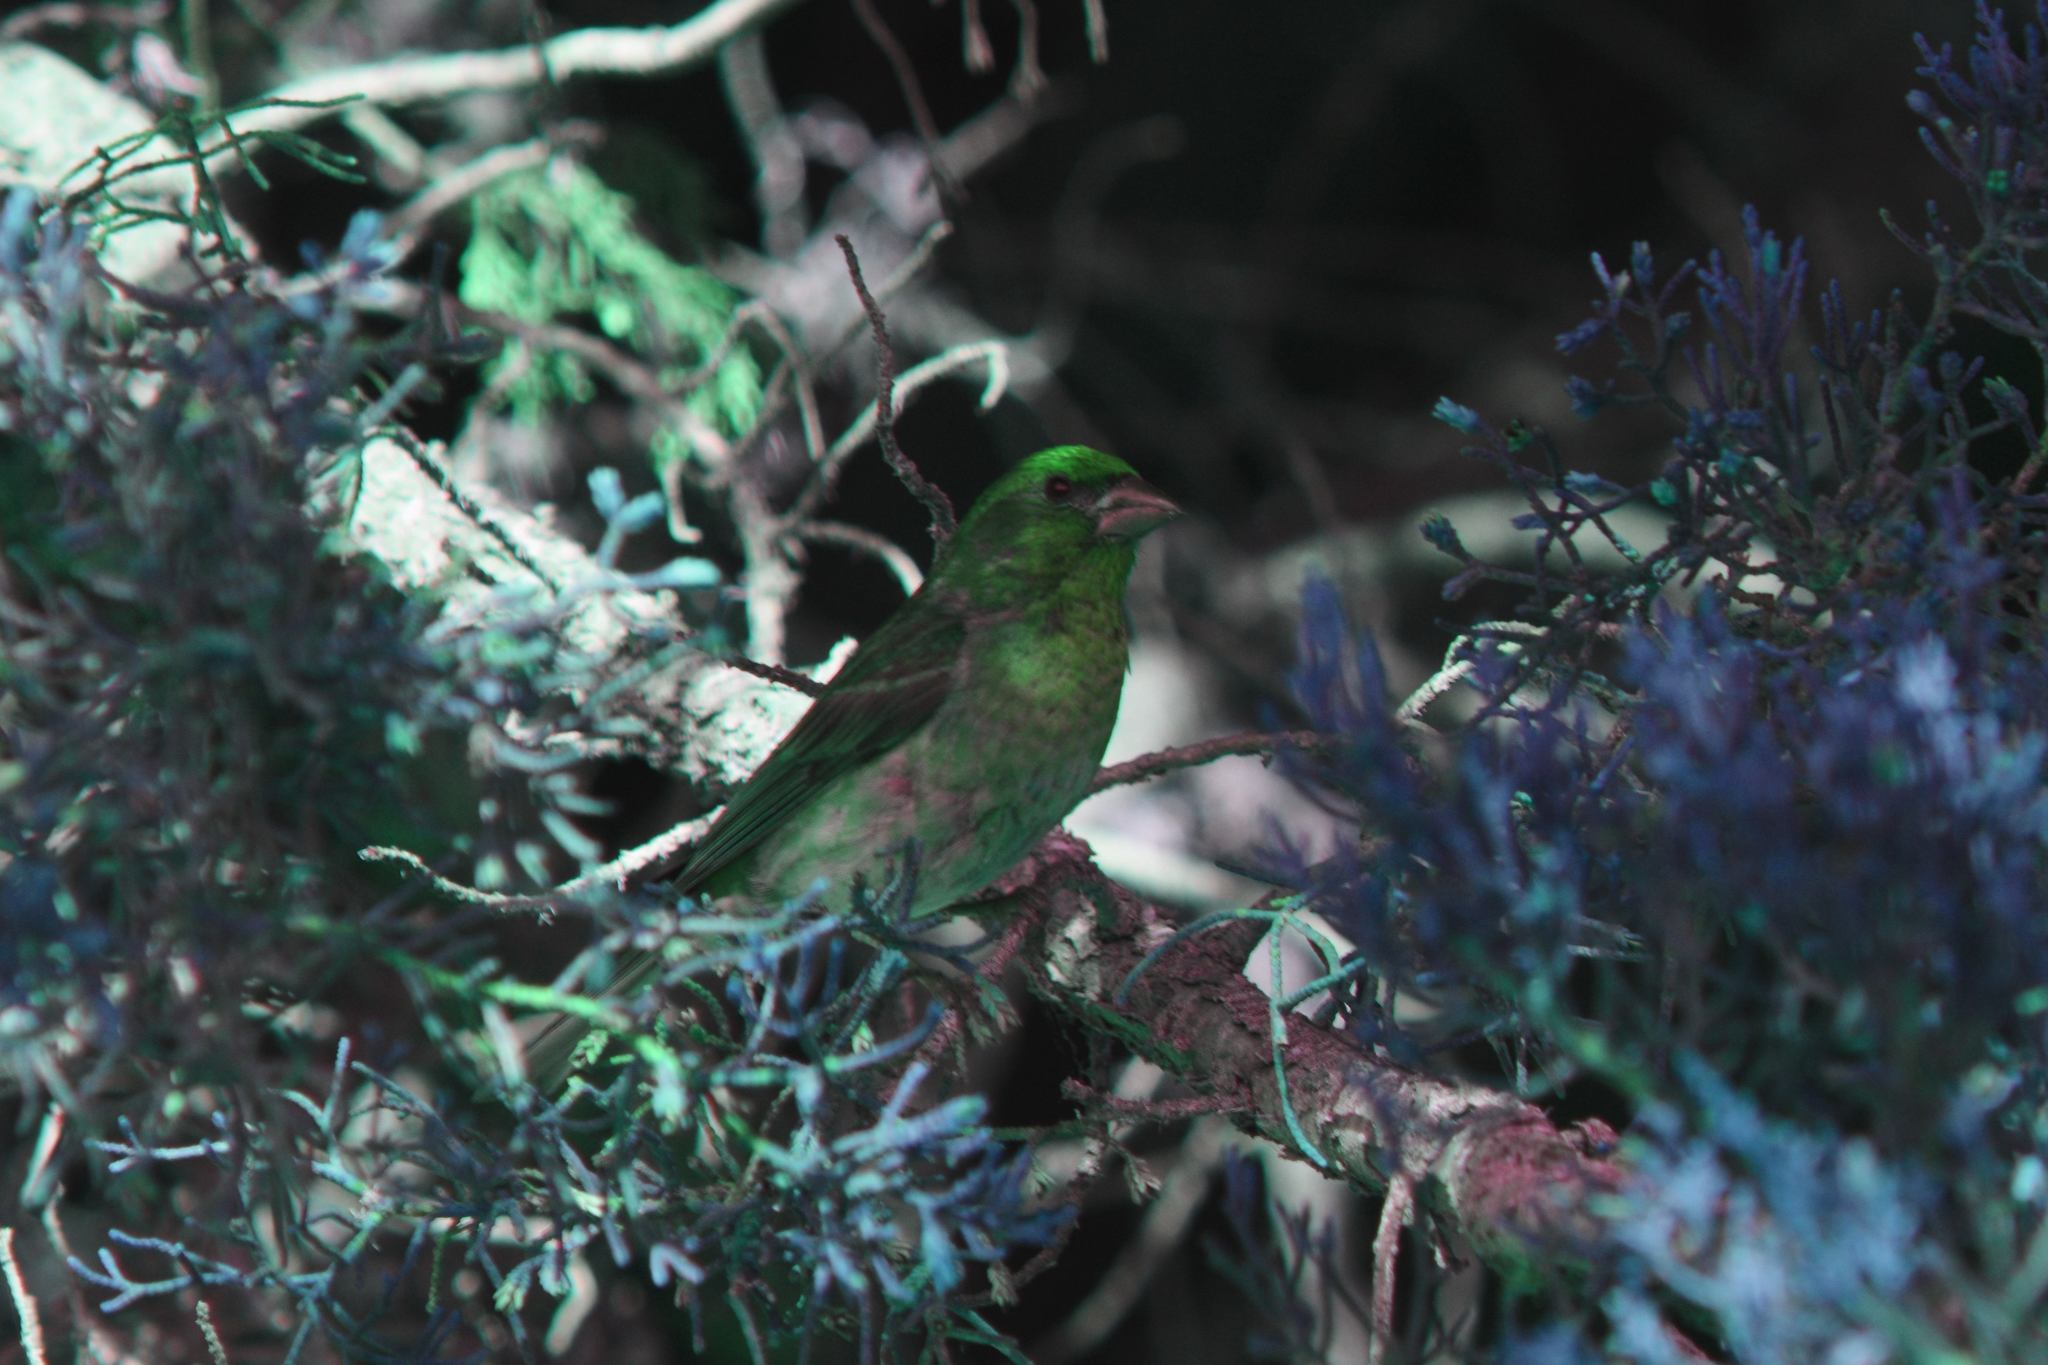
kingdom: Animalia
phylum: Chordata
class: Aves
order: Passeriformes
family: Fringillidae
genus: Haemorhous
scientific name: Haemorhous purpureus
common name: Purple finch
